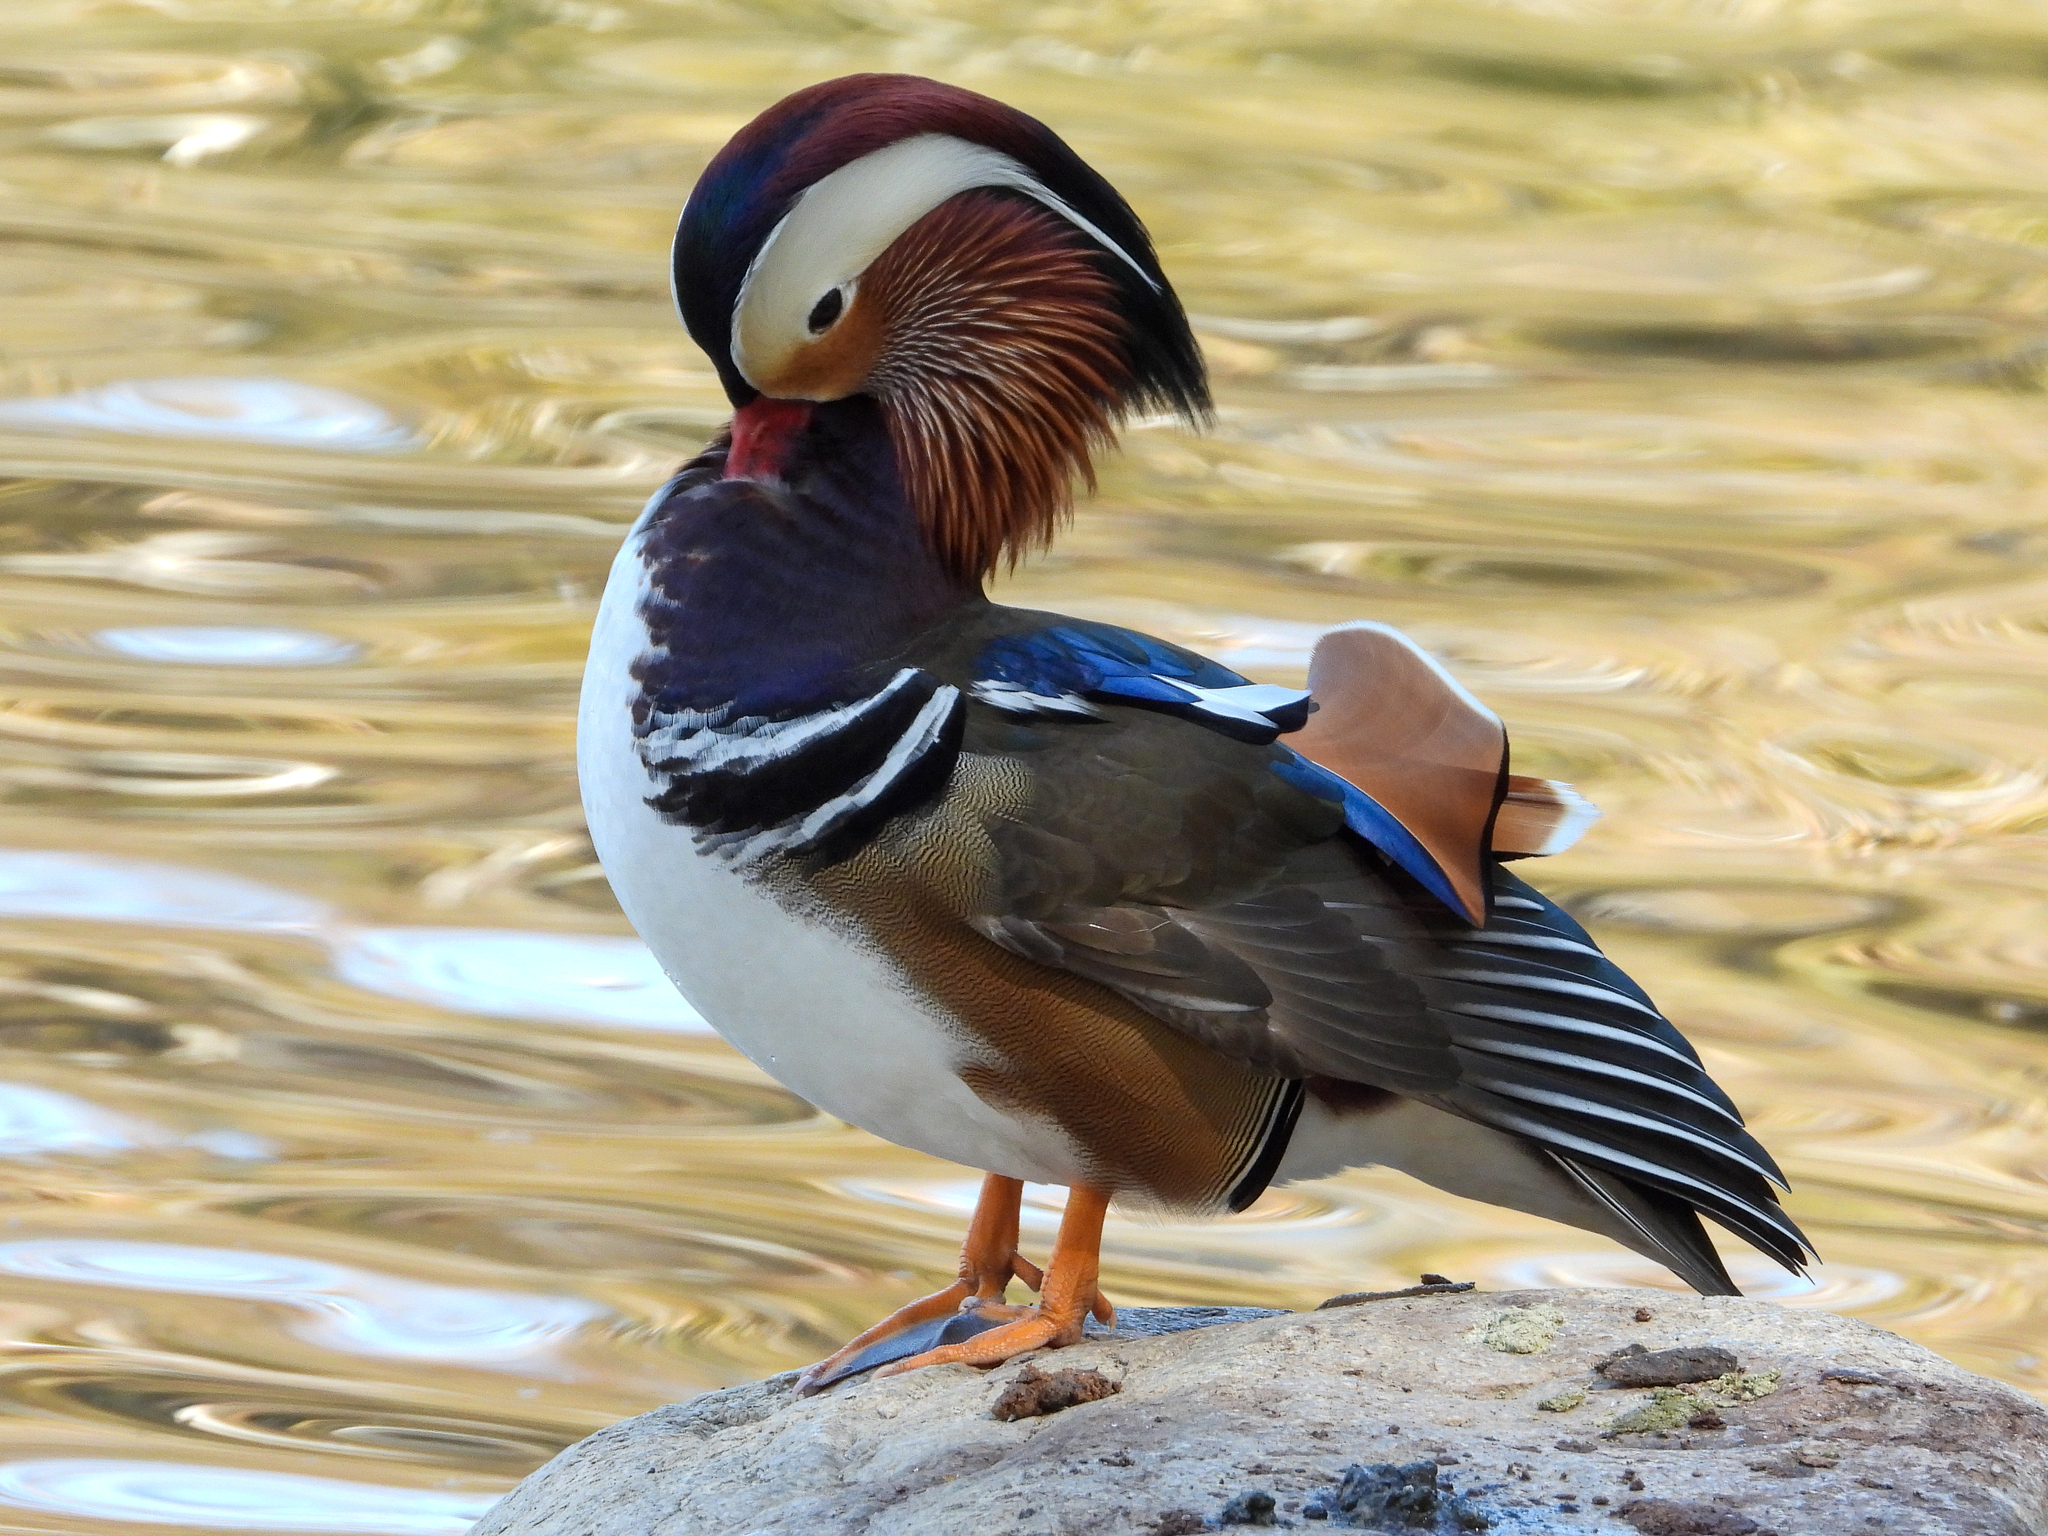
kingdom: Animalia
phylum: Chordata
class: Aves
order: Anseriformes
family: Anatidae
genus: Aix
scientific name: Aix galericulata
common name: Mandarin duck
